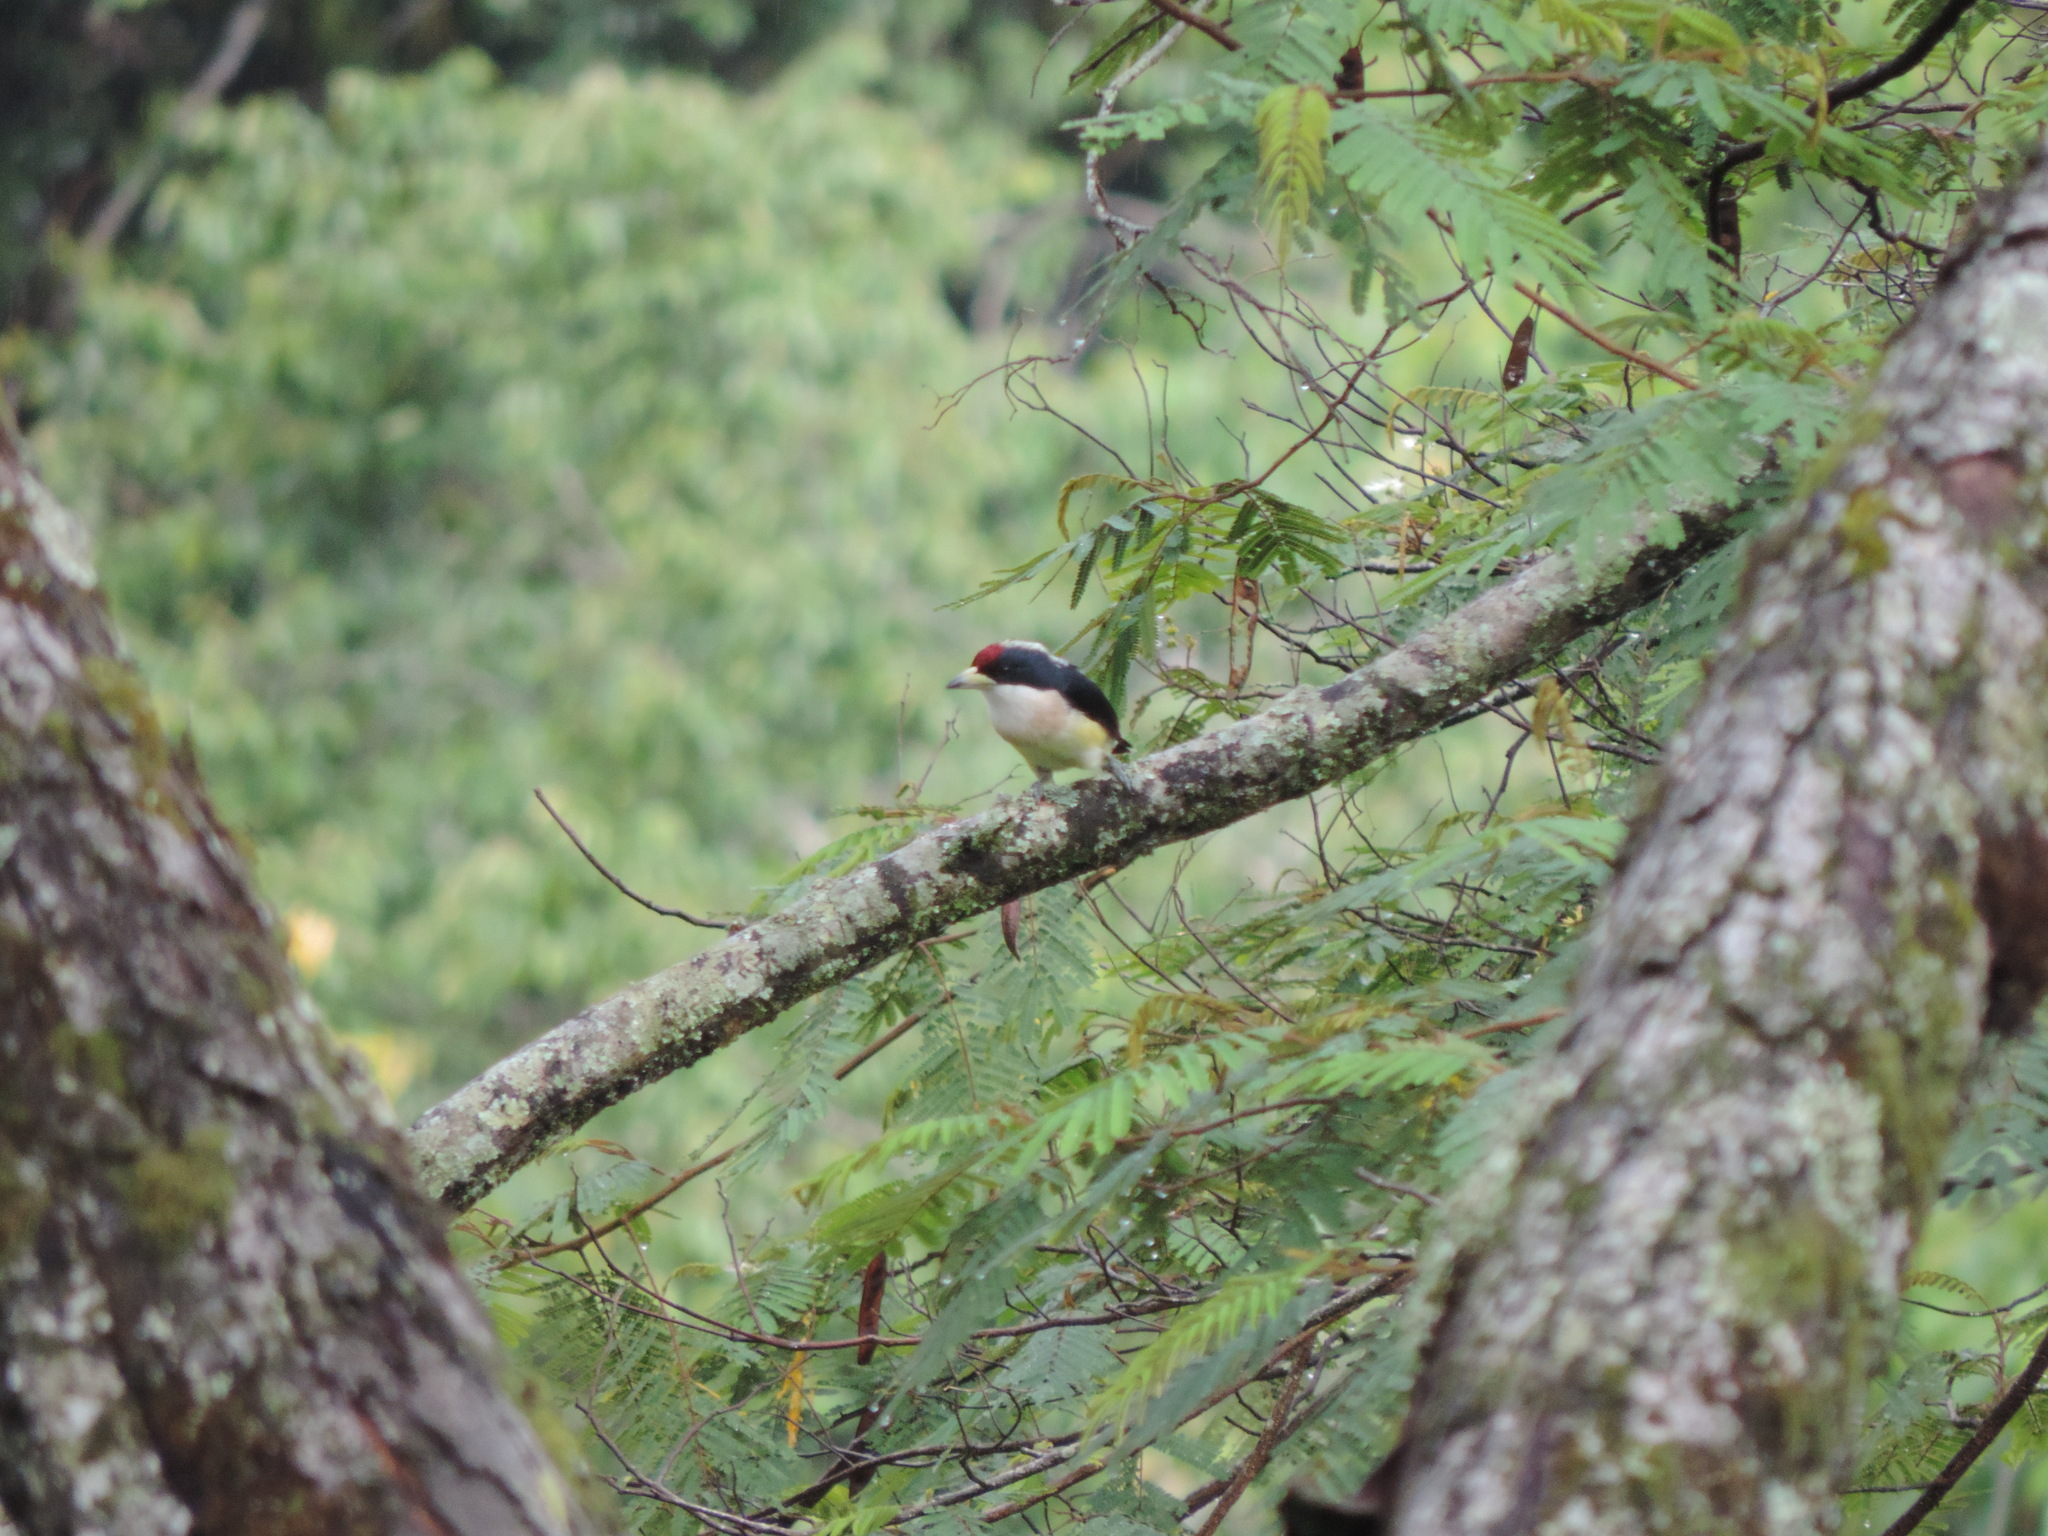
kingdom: Animalia
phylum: Chordata
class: Aves
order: Piciformes
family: Capitonidae
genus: Capito
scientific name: Capito hypoleucus
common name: White-mantled barbet
